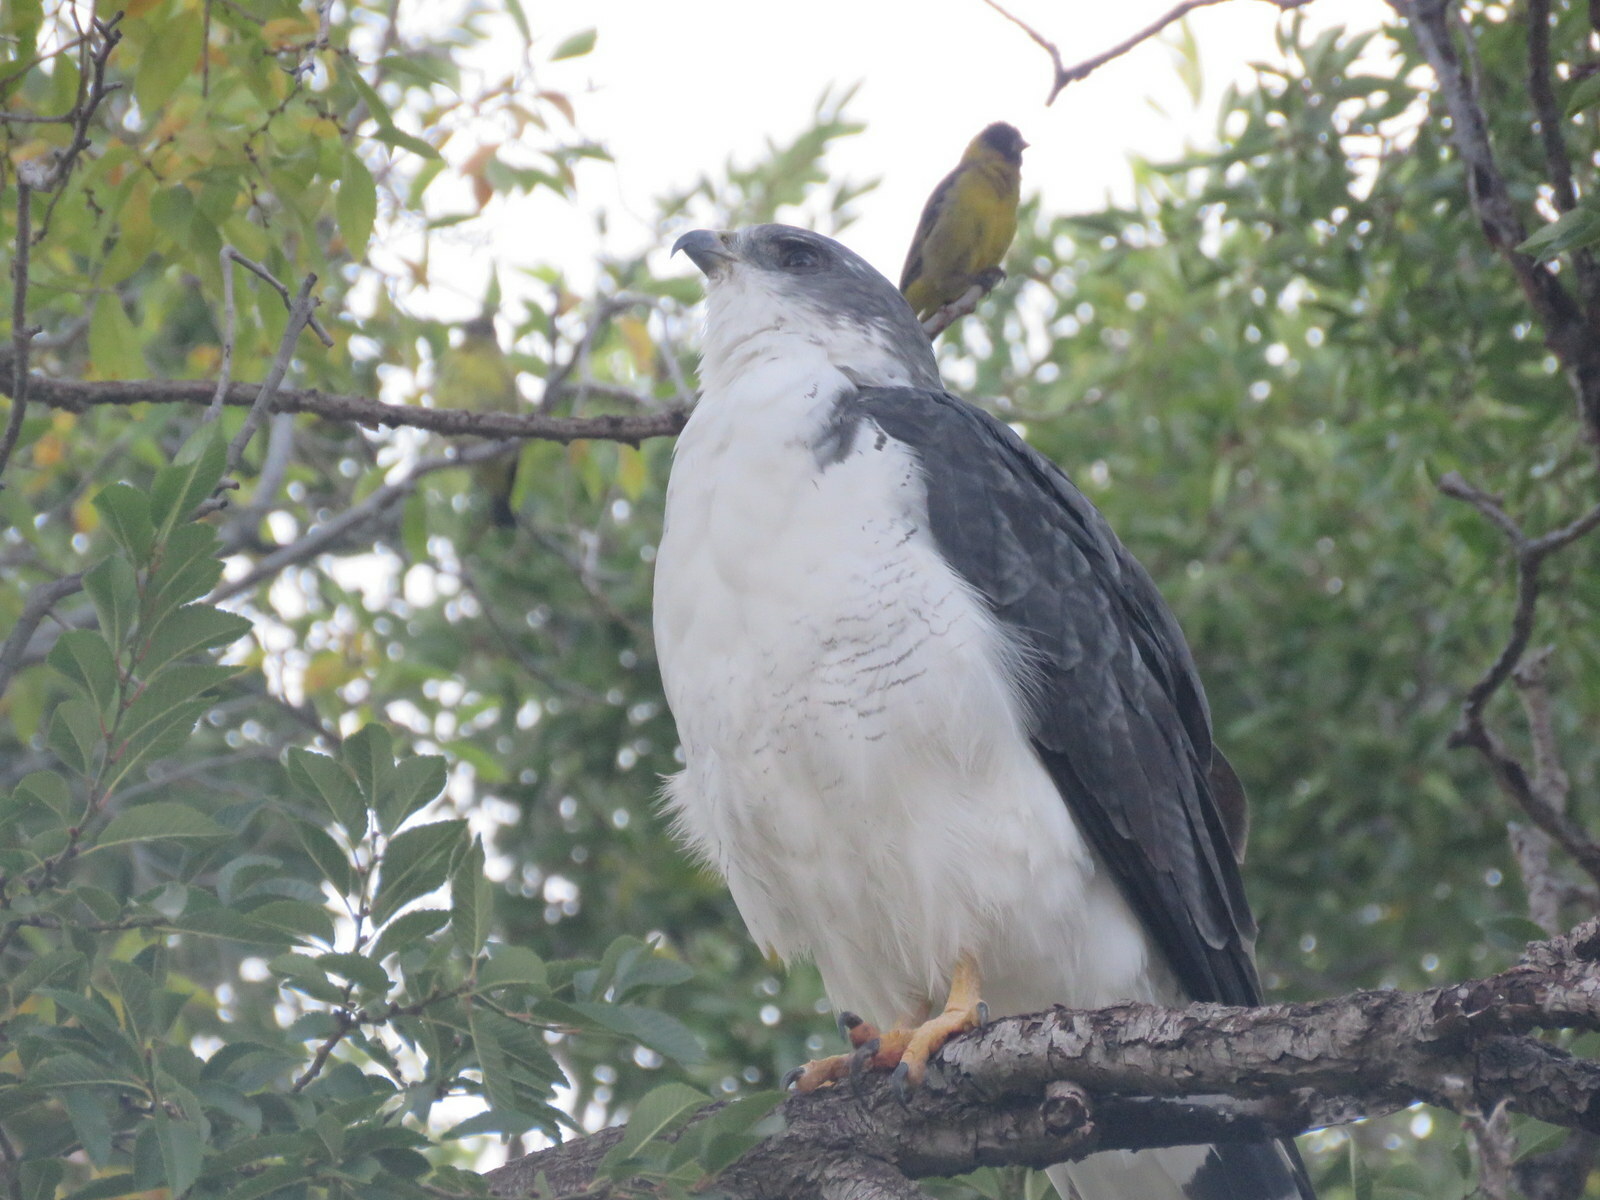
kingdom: Animalia
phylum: Chordata
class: Aves
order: Accipitriformes
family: Accipitridae
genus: Buteo
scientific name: Buteo polyosoma
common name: Variable hawk
